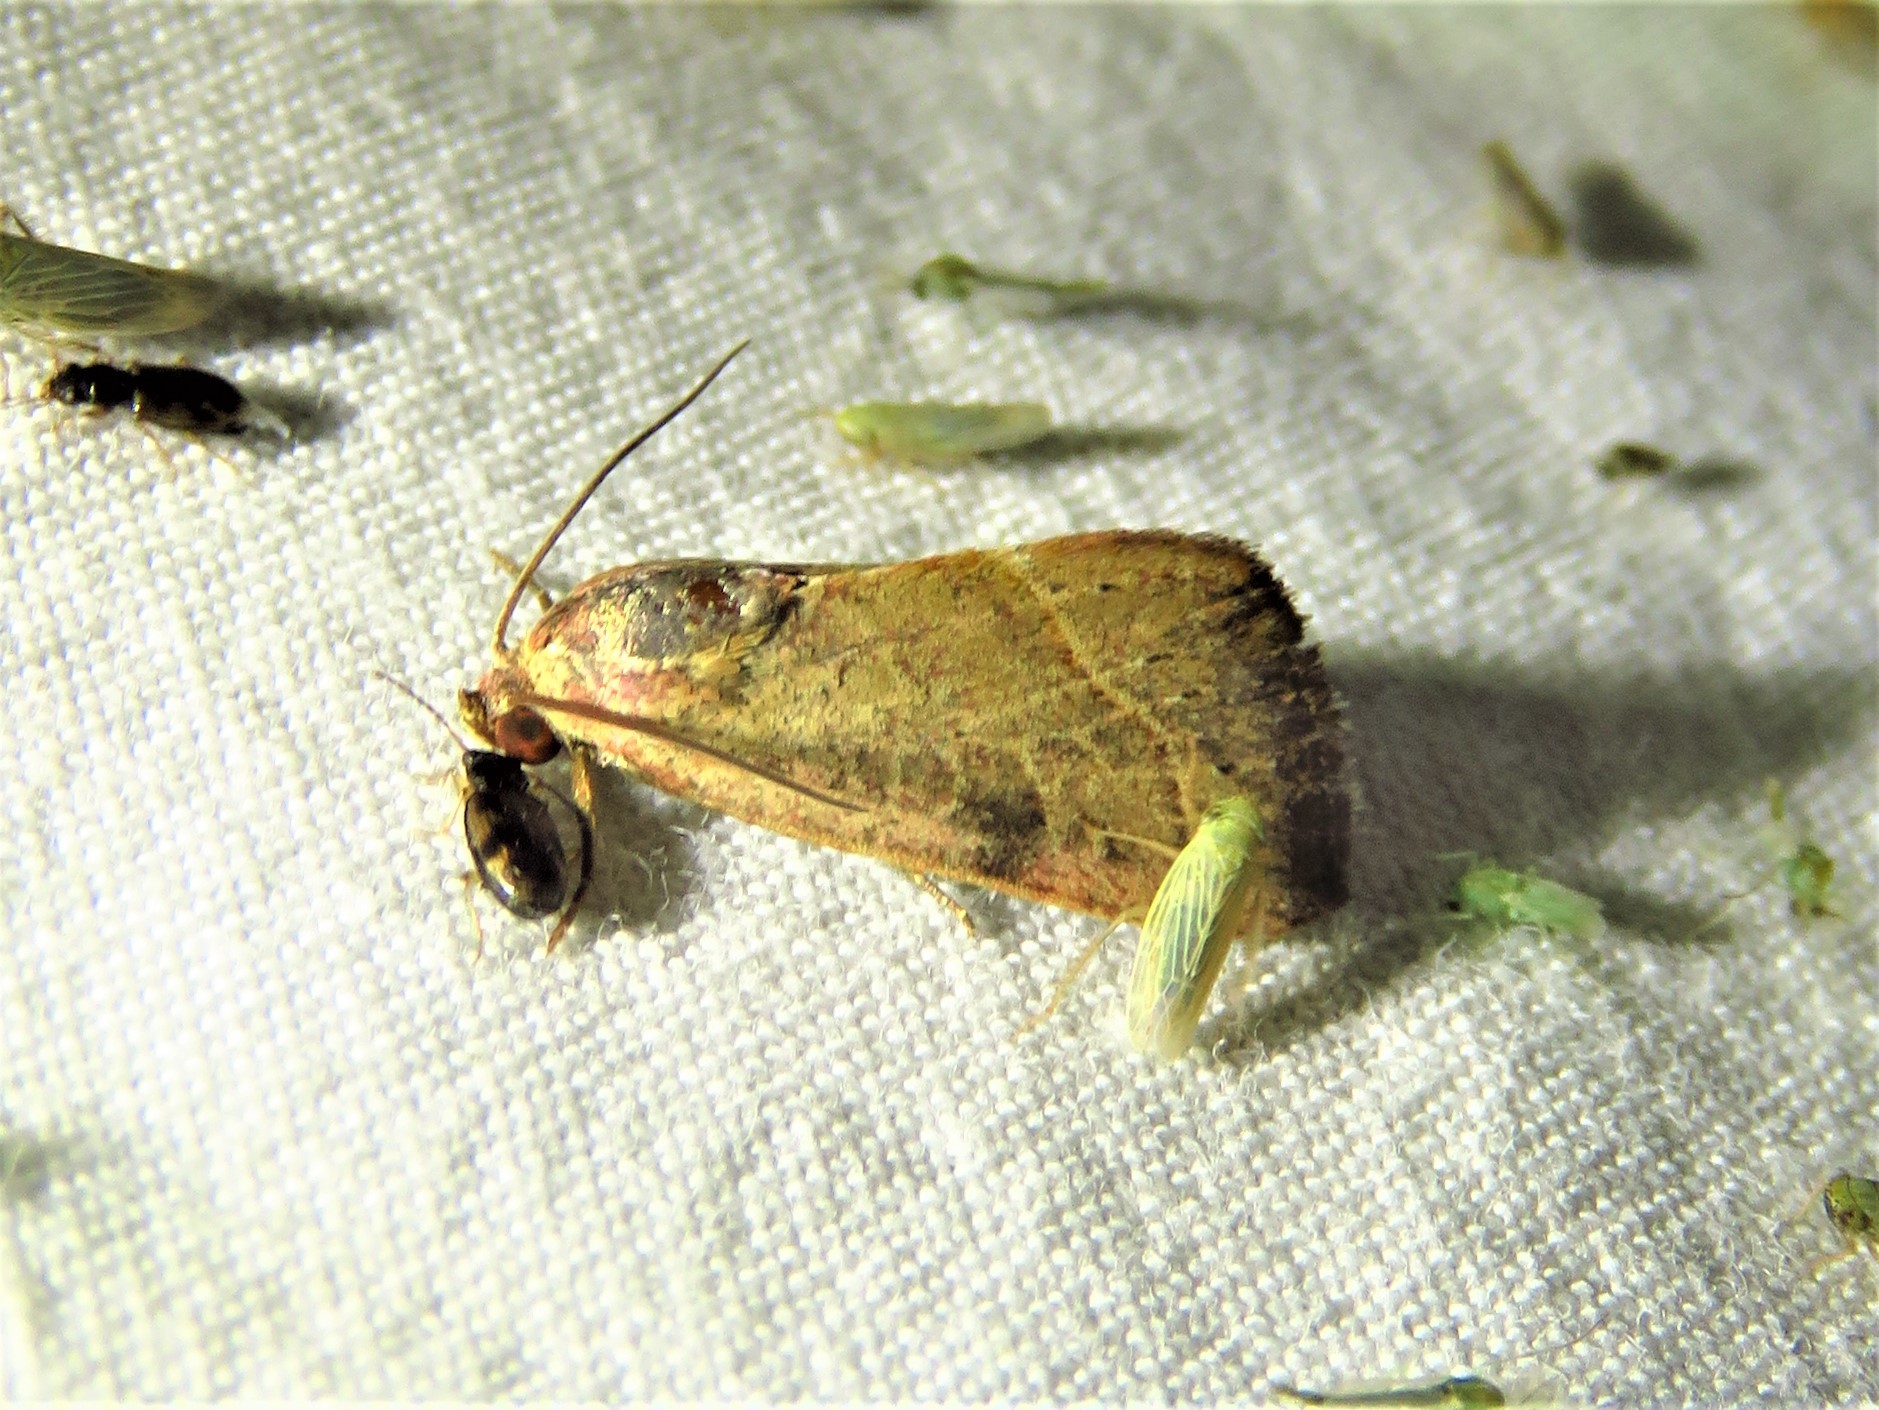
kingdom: Animalia
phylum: Arthropoda
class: Insecta
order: Lepidoptera
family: Noctuidae
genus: Galgula
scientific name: Galgula partita
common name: Wedgeling
